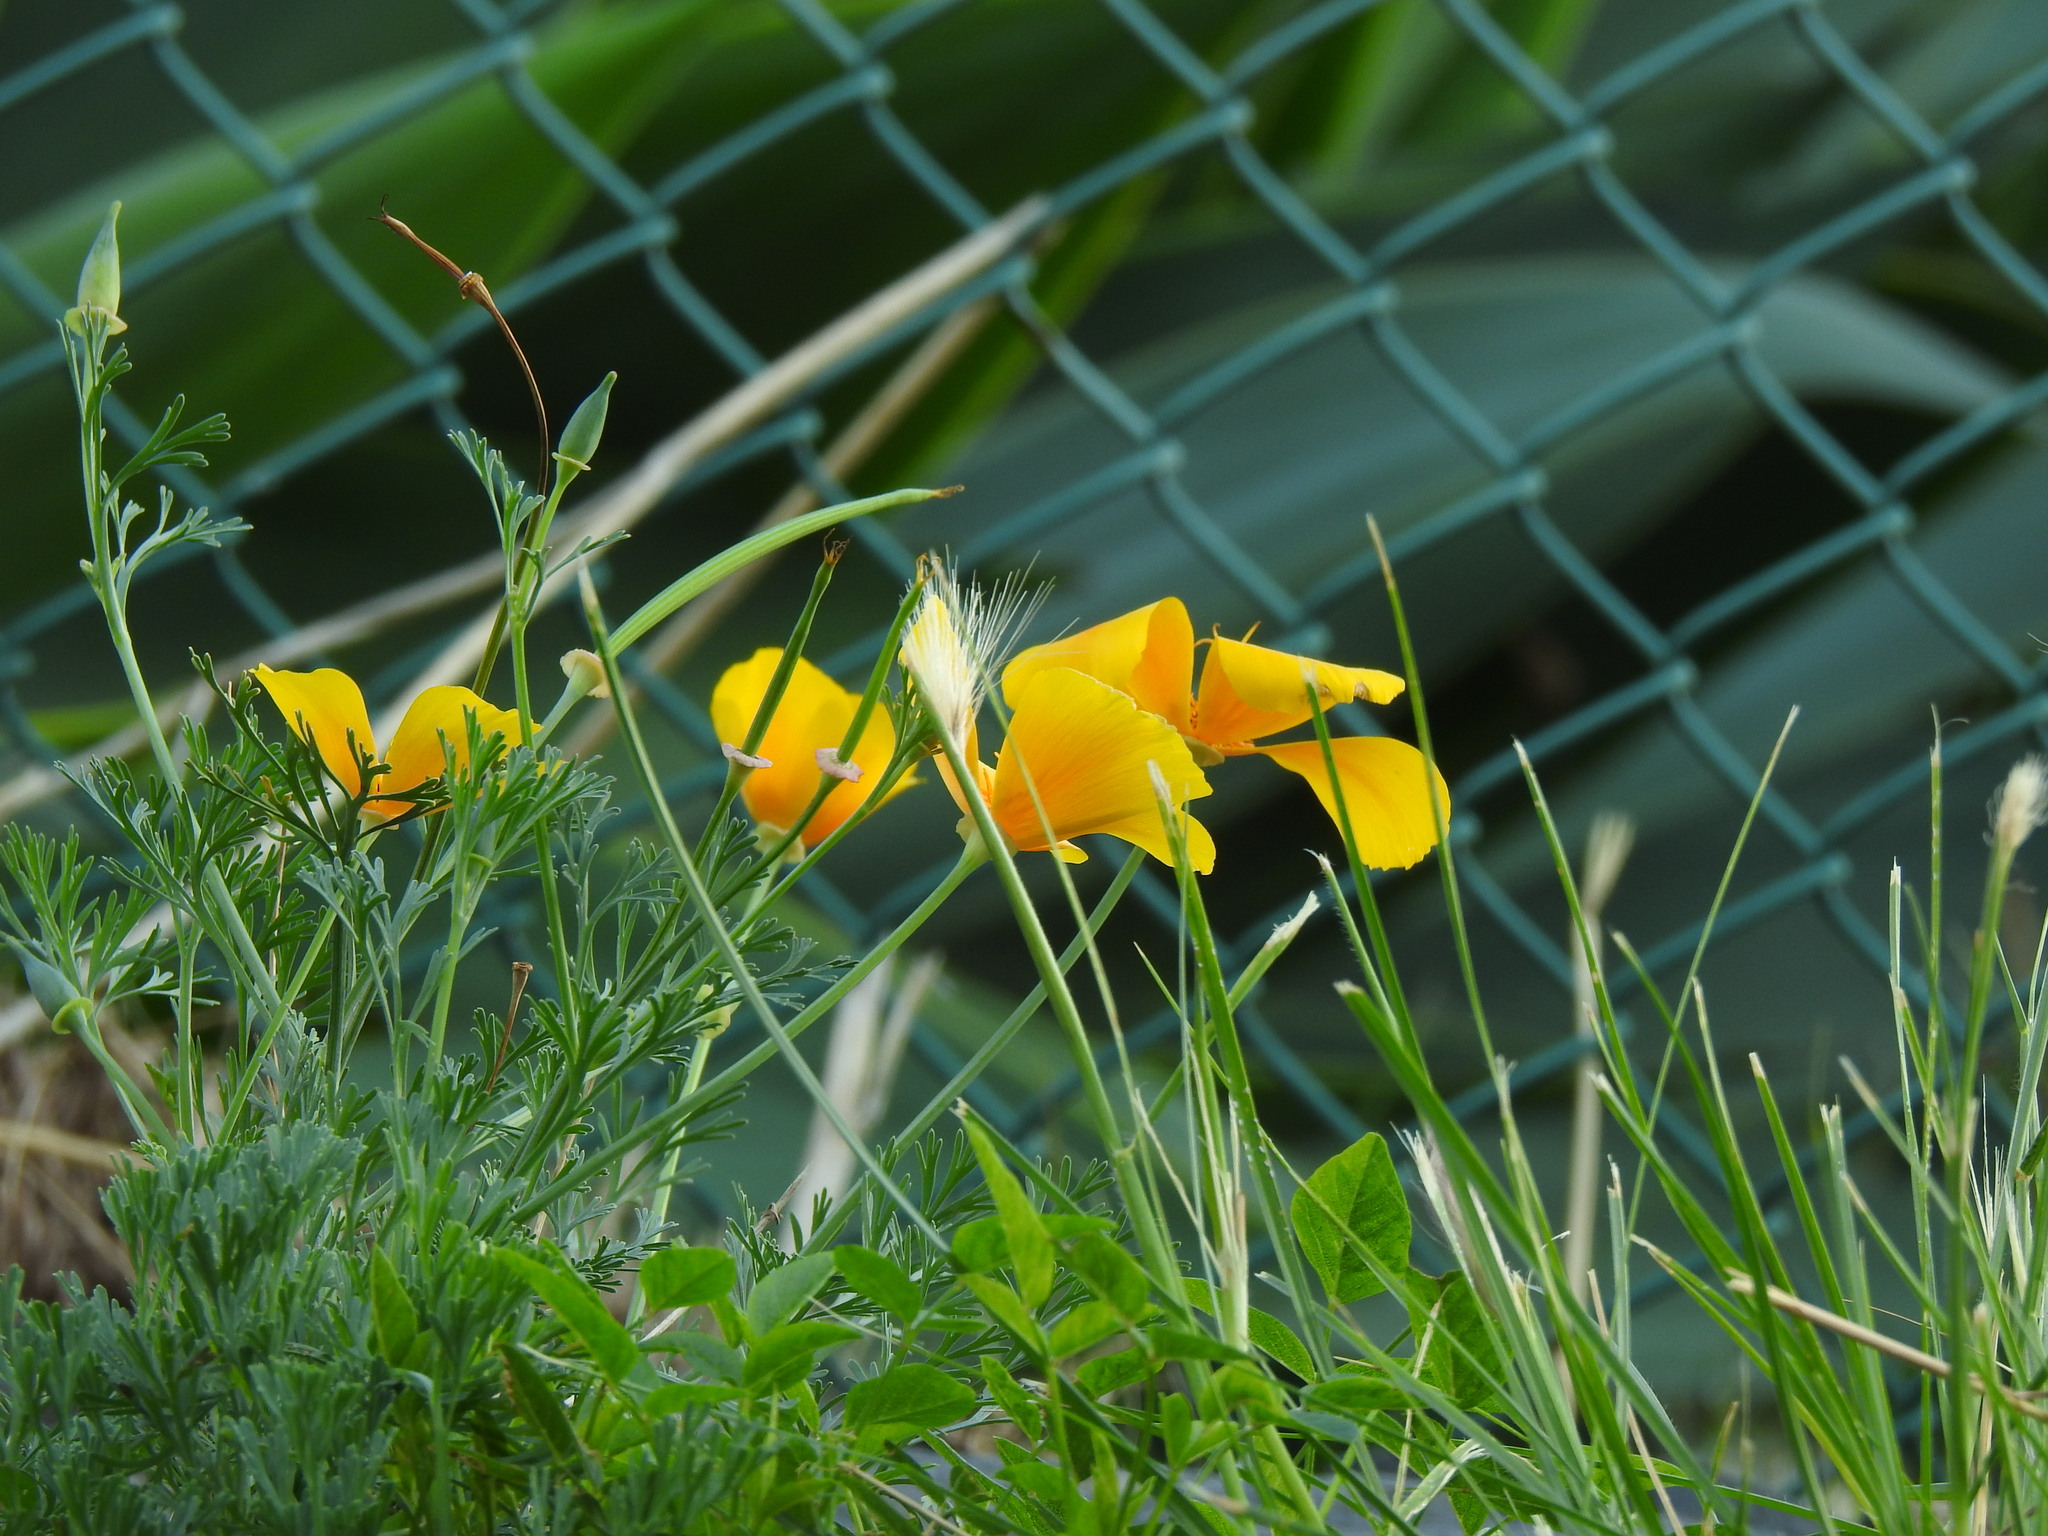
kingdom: Plantae
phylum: Tracheophyta
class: Magnoliopsida
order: Ranunculales
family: Papaveraceae
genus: Eschscholzia
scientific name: Eschscholzia californica
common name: California poppy
